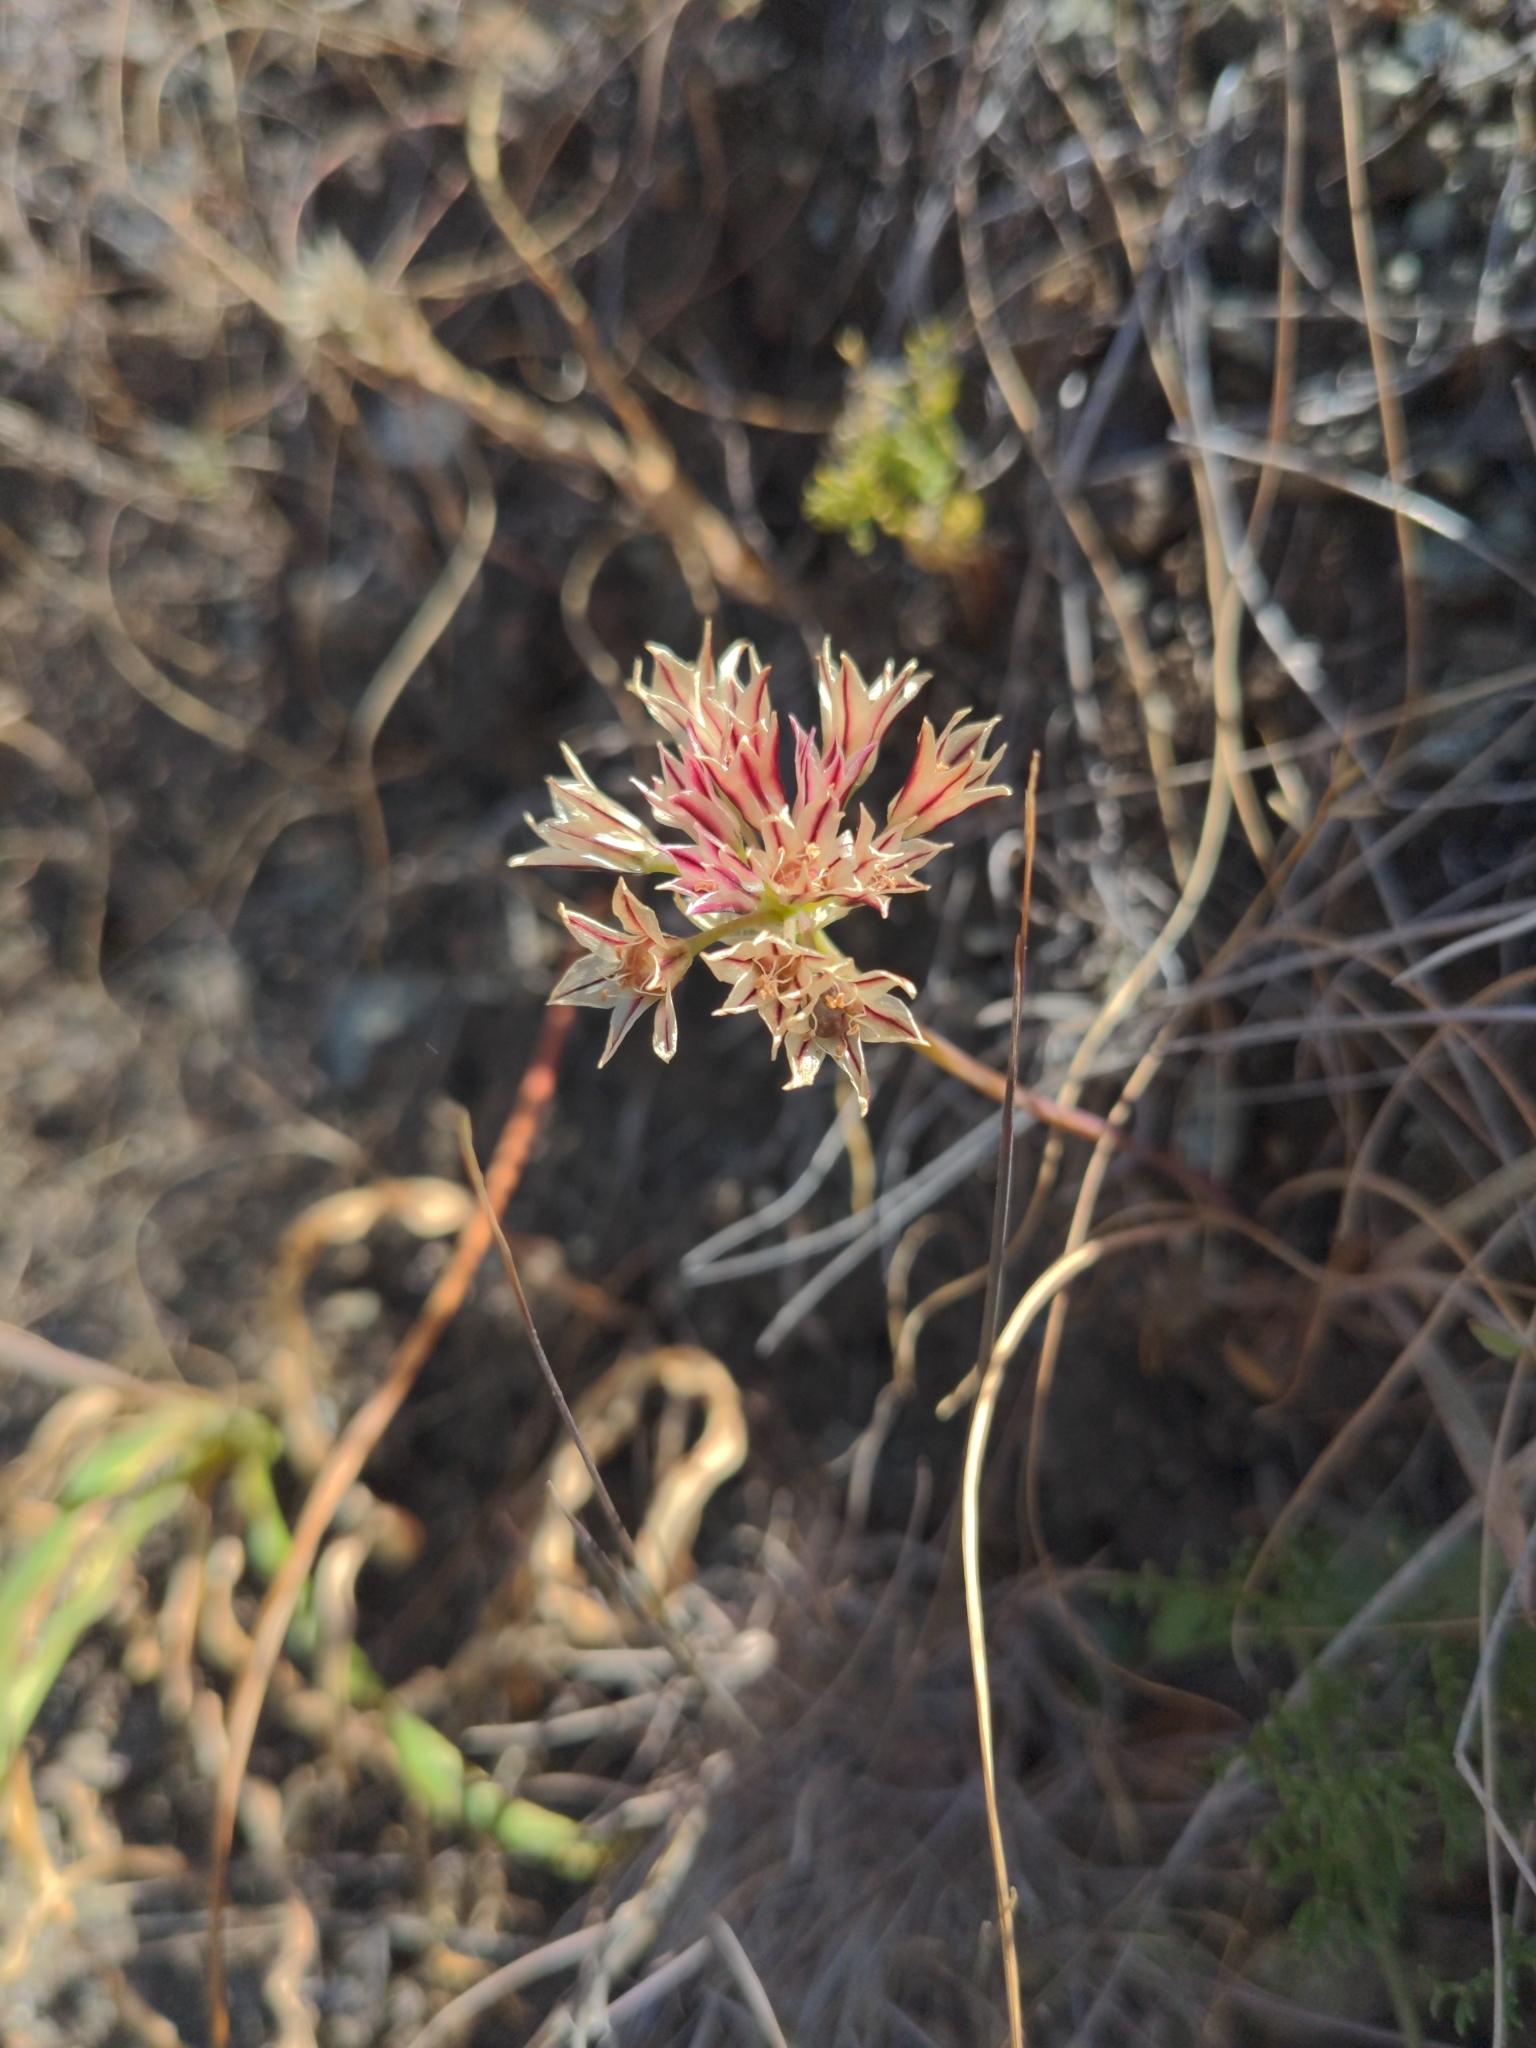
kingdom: Plantae
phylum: Tracheophyta
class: Liliopsida
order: Asparagales
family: Amaryllidaceae
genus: Allium
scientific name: Allium lacunosum
